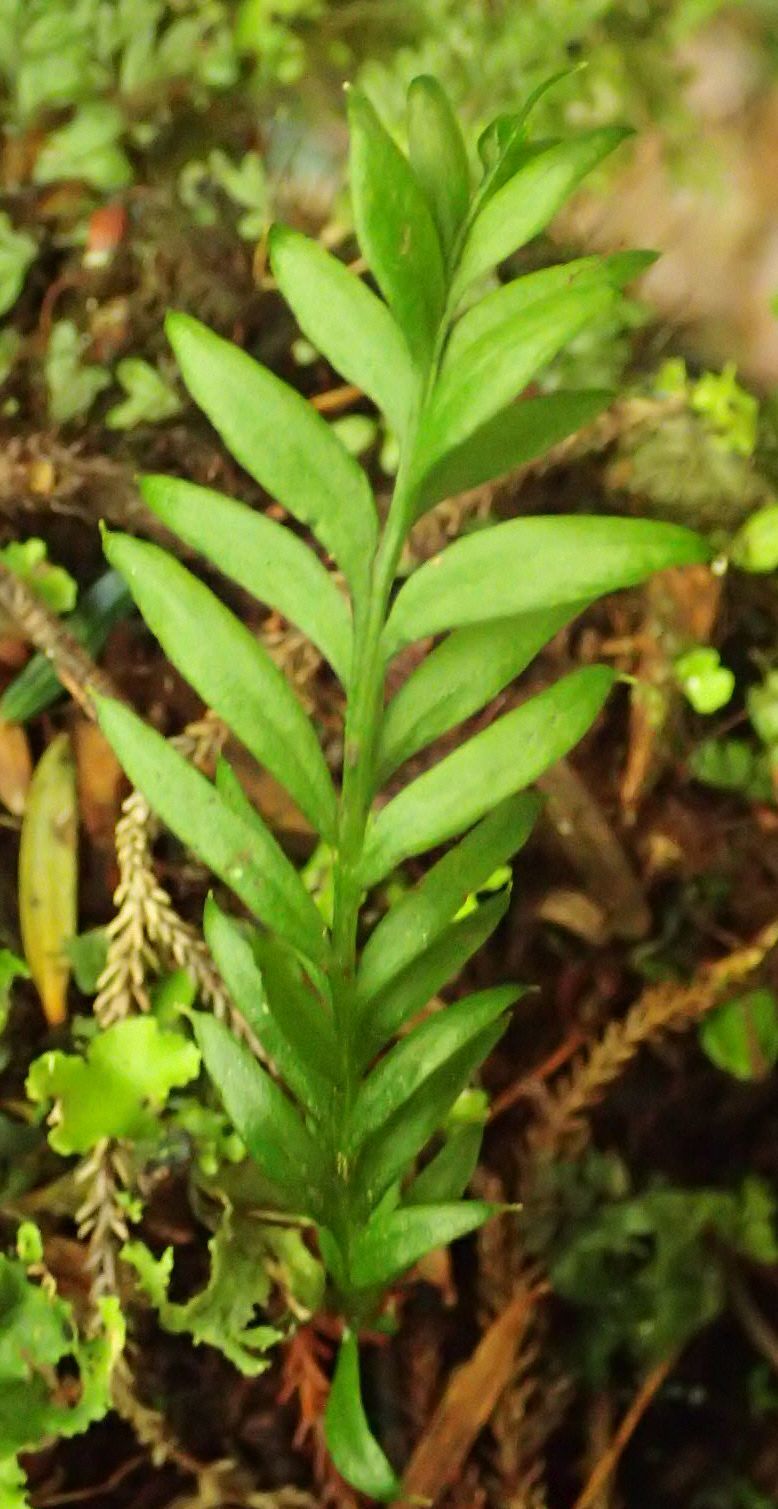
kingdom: Plantae
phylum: Tracheophyta
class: Polypodiopsida
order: Psilotales
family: Psilotaceae
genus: Tmesipteris
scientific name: Tmesipteris elongata
